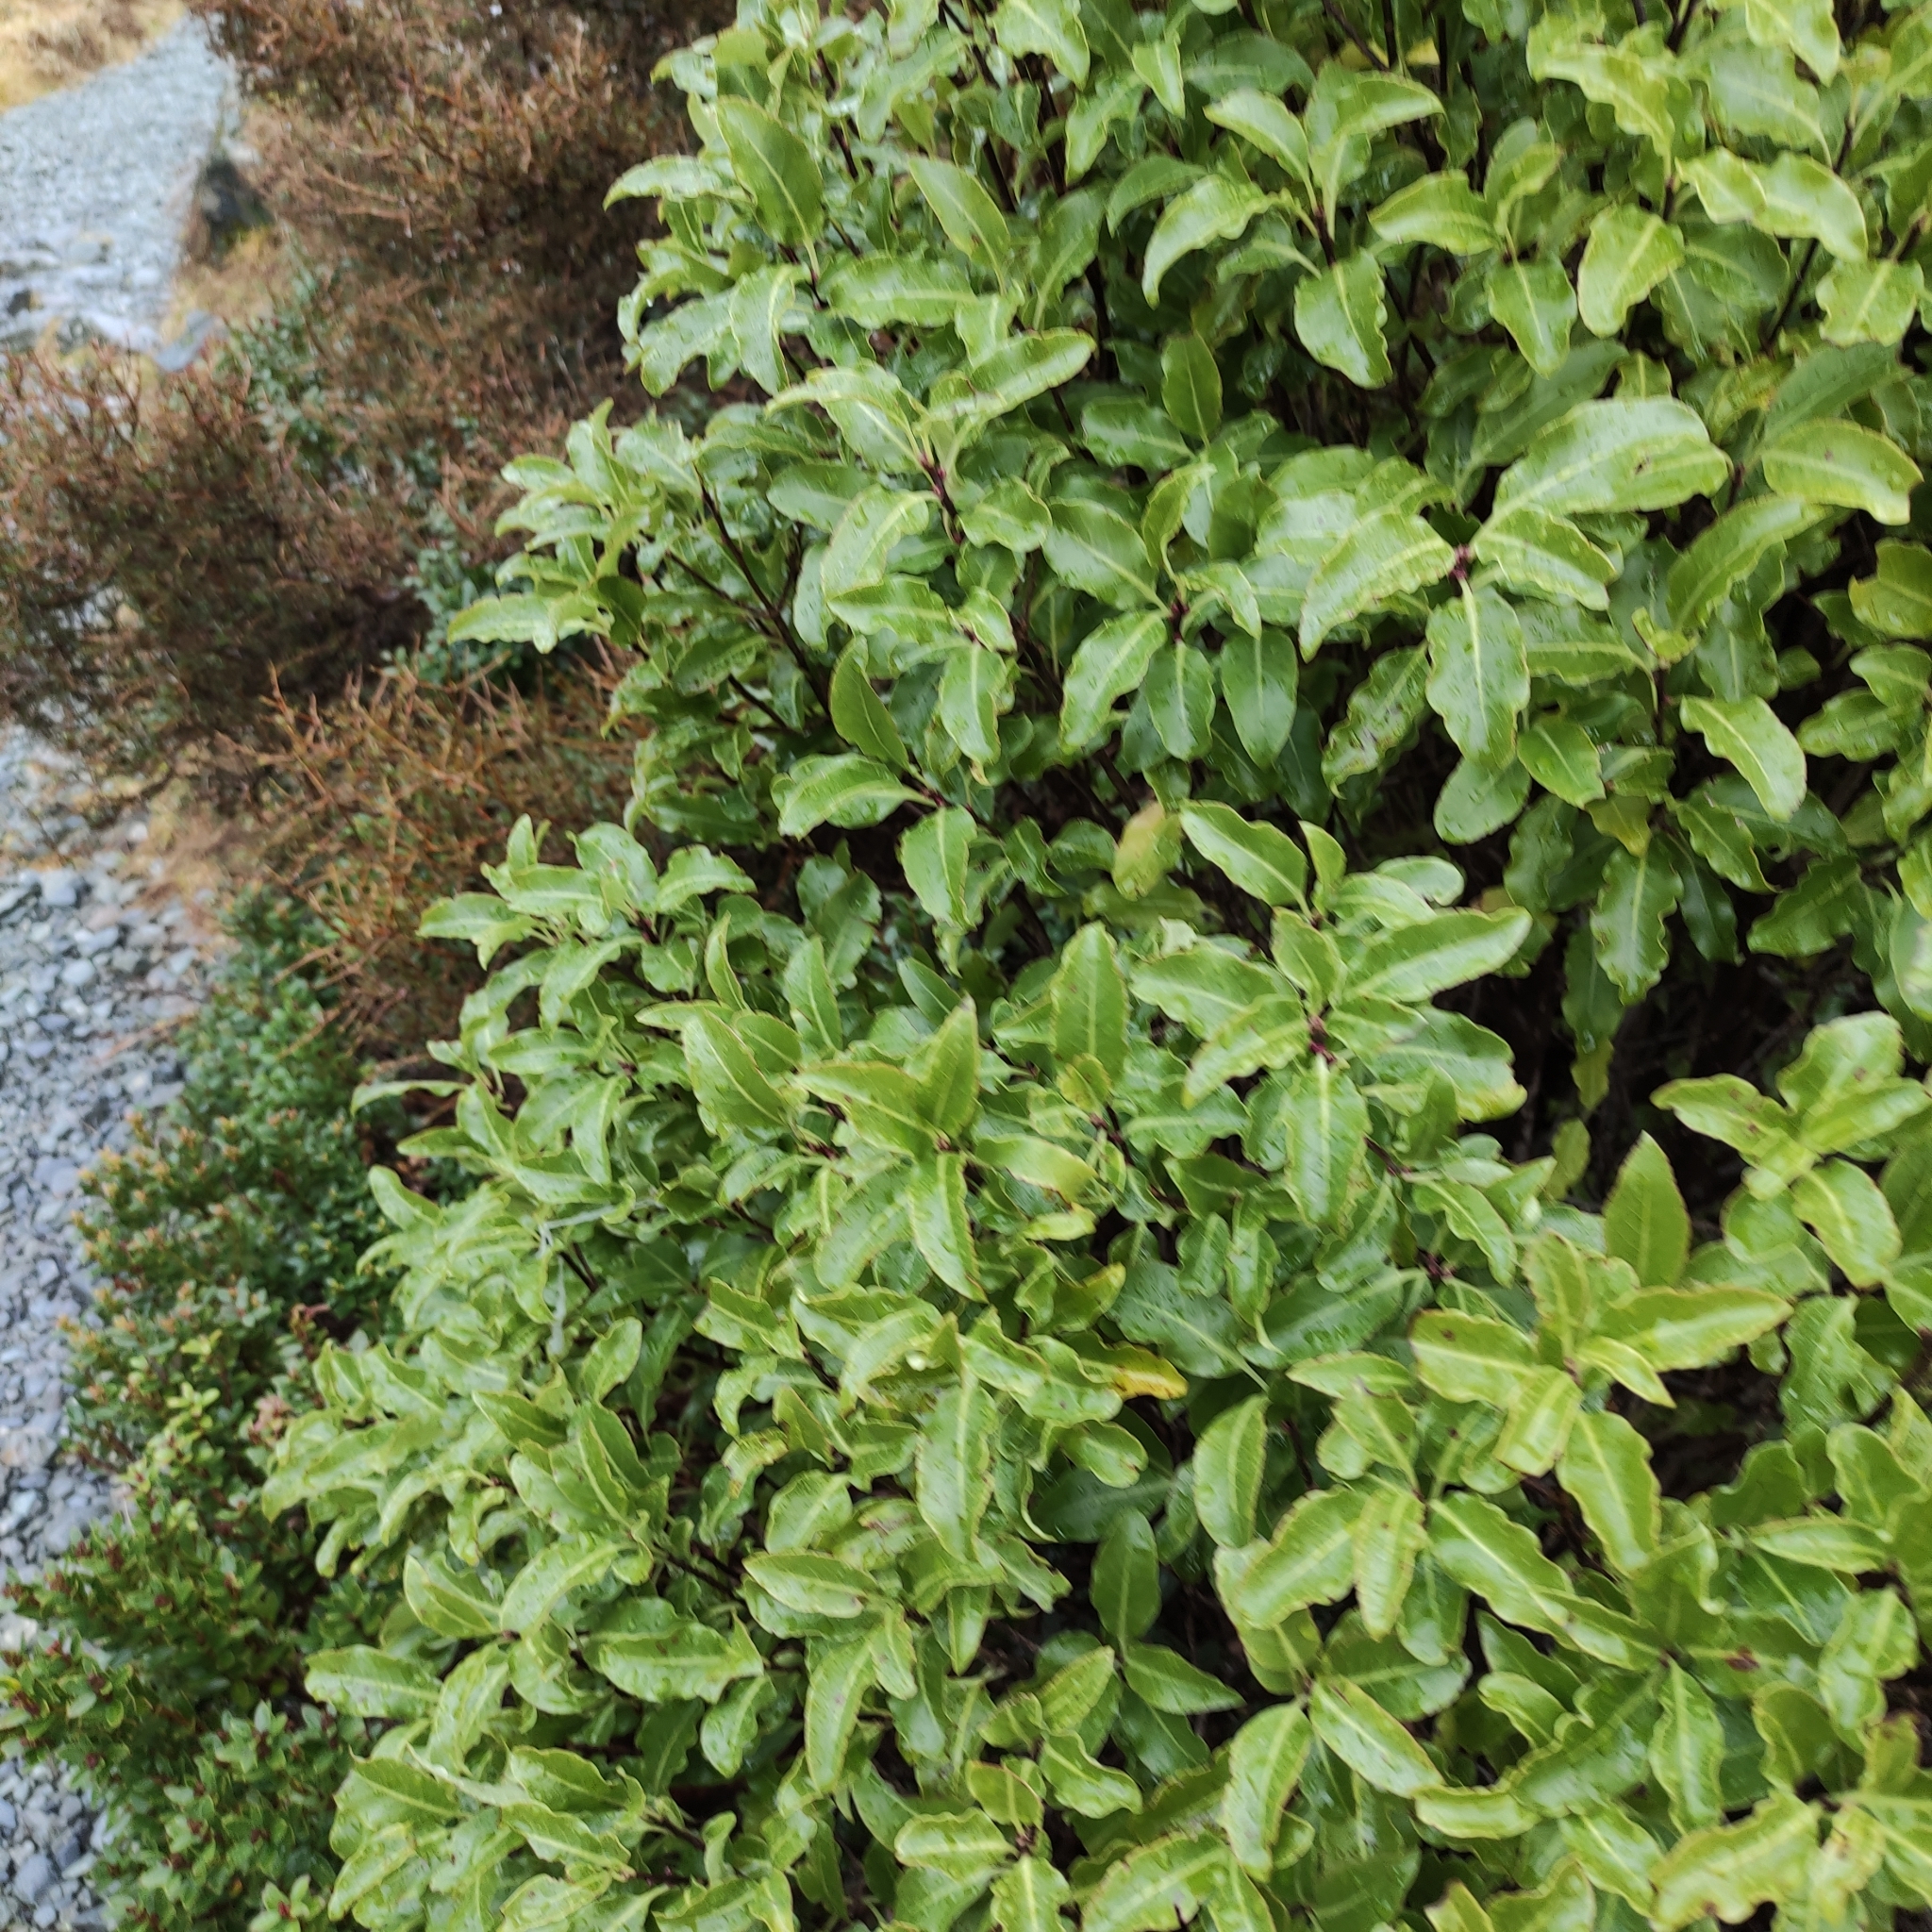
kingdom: Plantae
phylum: Tracheophyta
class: Magnoliopsida
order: Apiales
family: Pittosporaceae
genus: Pittosporum
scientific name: Pittosporum tenuifolium
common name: Kohuhu
